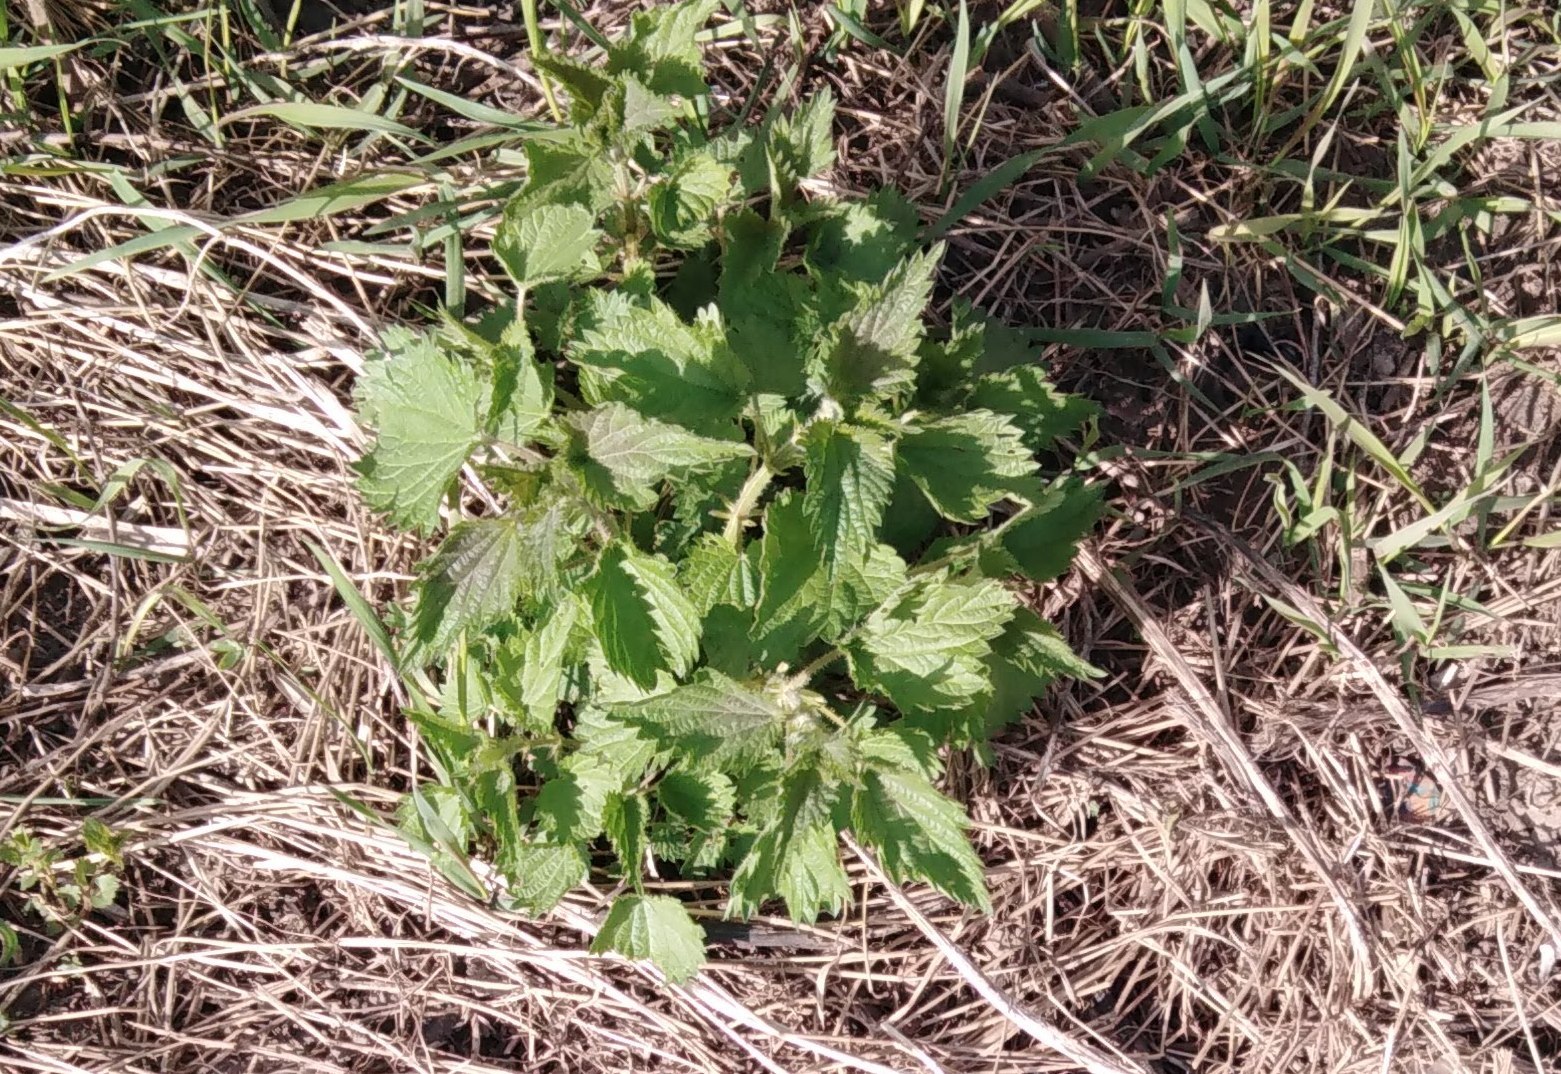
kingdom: Plantae
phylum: Tracheophyta
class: Magnoliopsida
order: Rosales
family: Urticaceae
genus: Urtica
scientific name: Urtica dioica
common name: Common nettle
